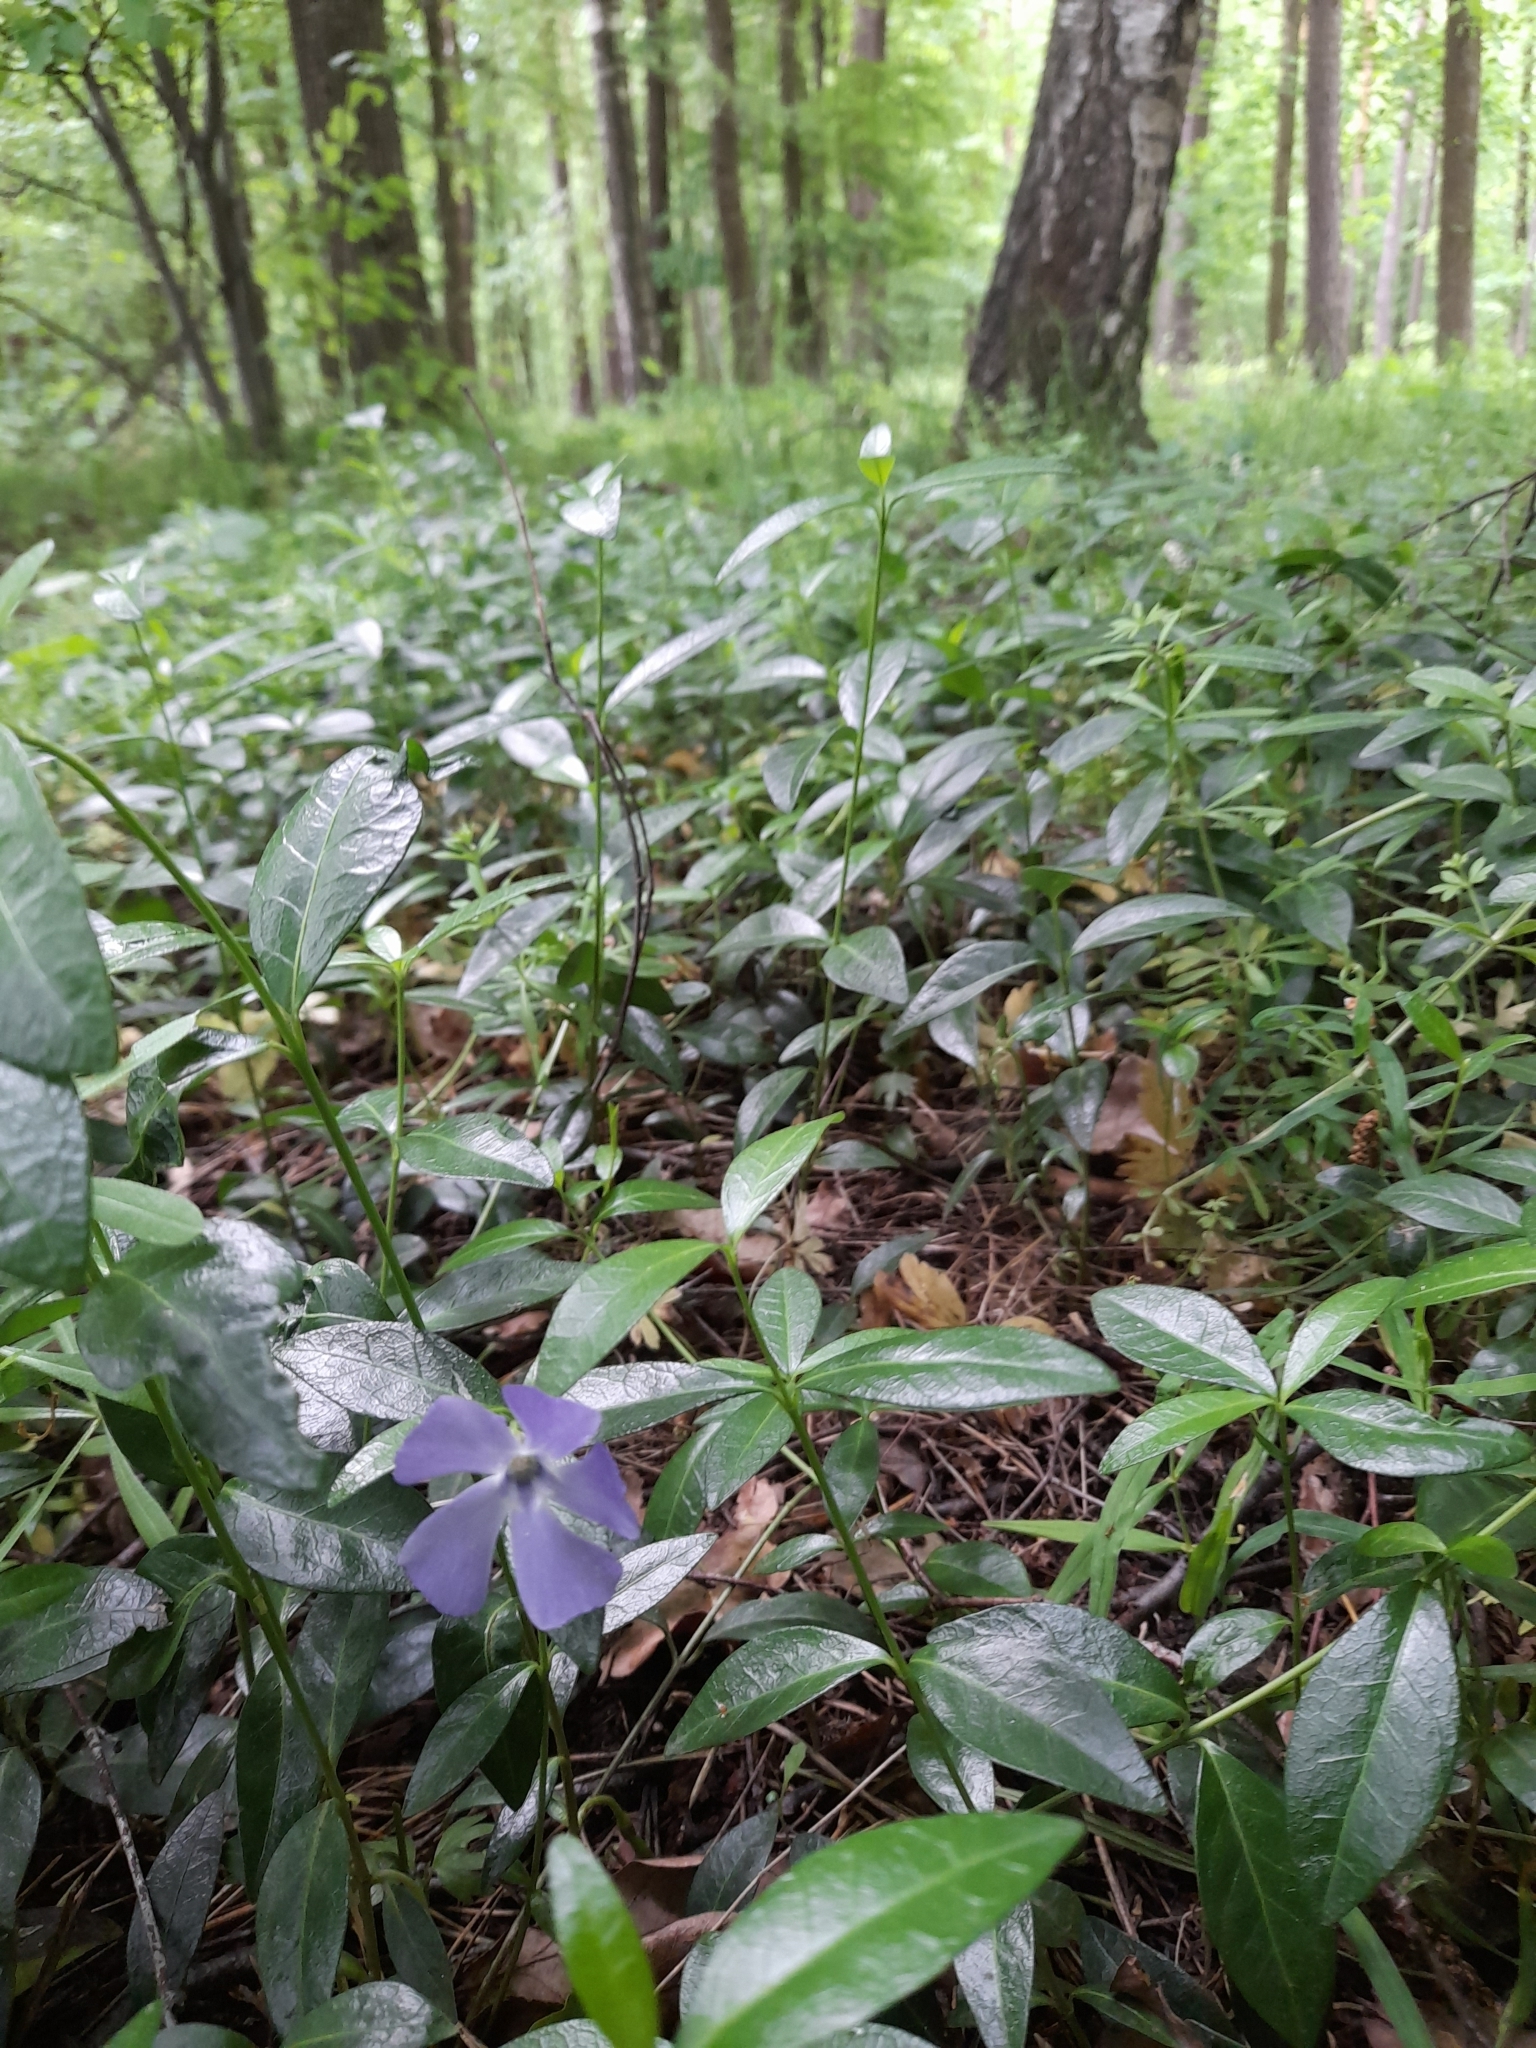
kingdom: Plantae
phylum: Tracheophyta
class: Magnoliopsida
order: Gentianales
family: Apocynaceae
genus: Vinca
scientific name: Vinca minor
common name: Lesser periwinkle
